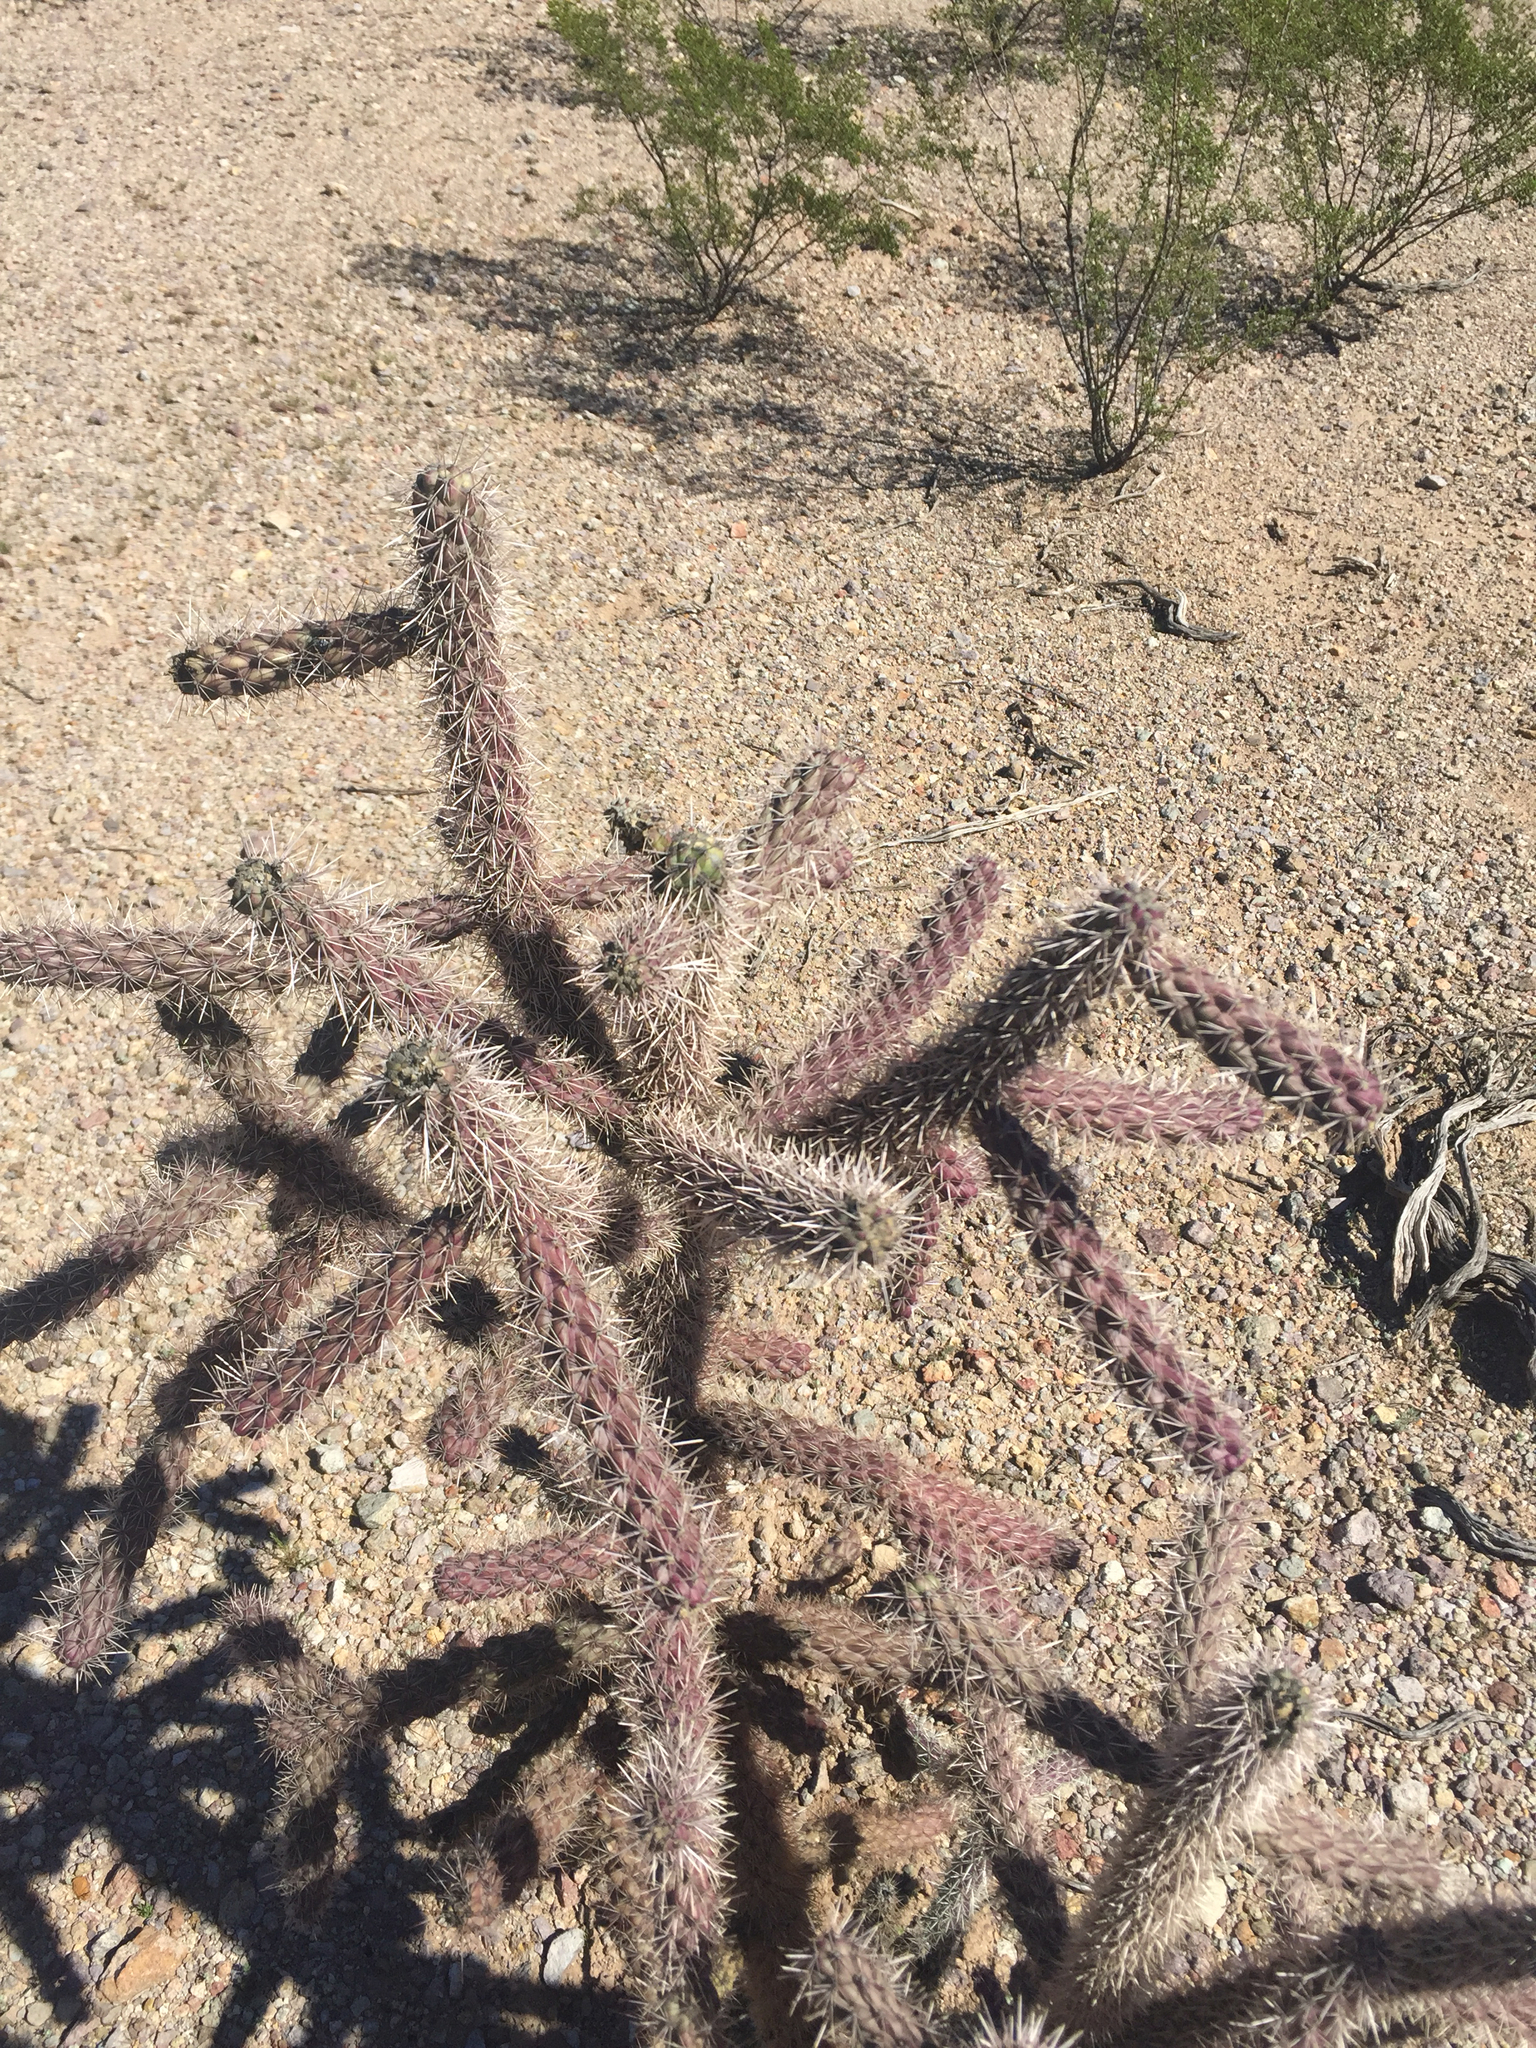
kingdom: Plantae
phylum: Tracheophyta
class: Magnoliopsida
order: Caryophyllales
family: Cactaceae
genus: Cylindropuntia
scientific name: Cylindropuntia imbricata
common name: Candelabrum cactus
